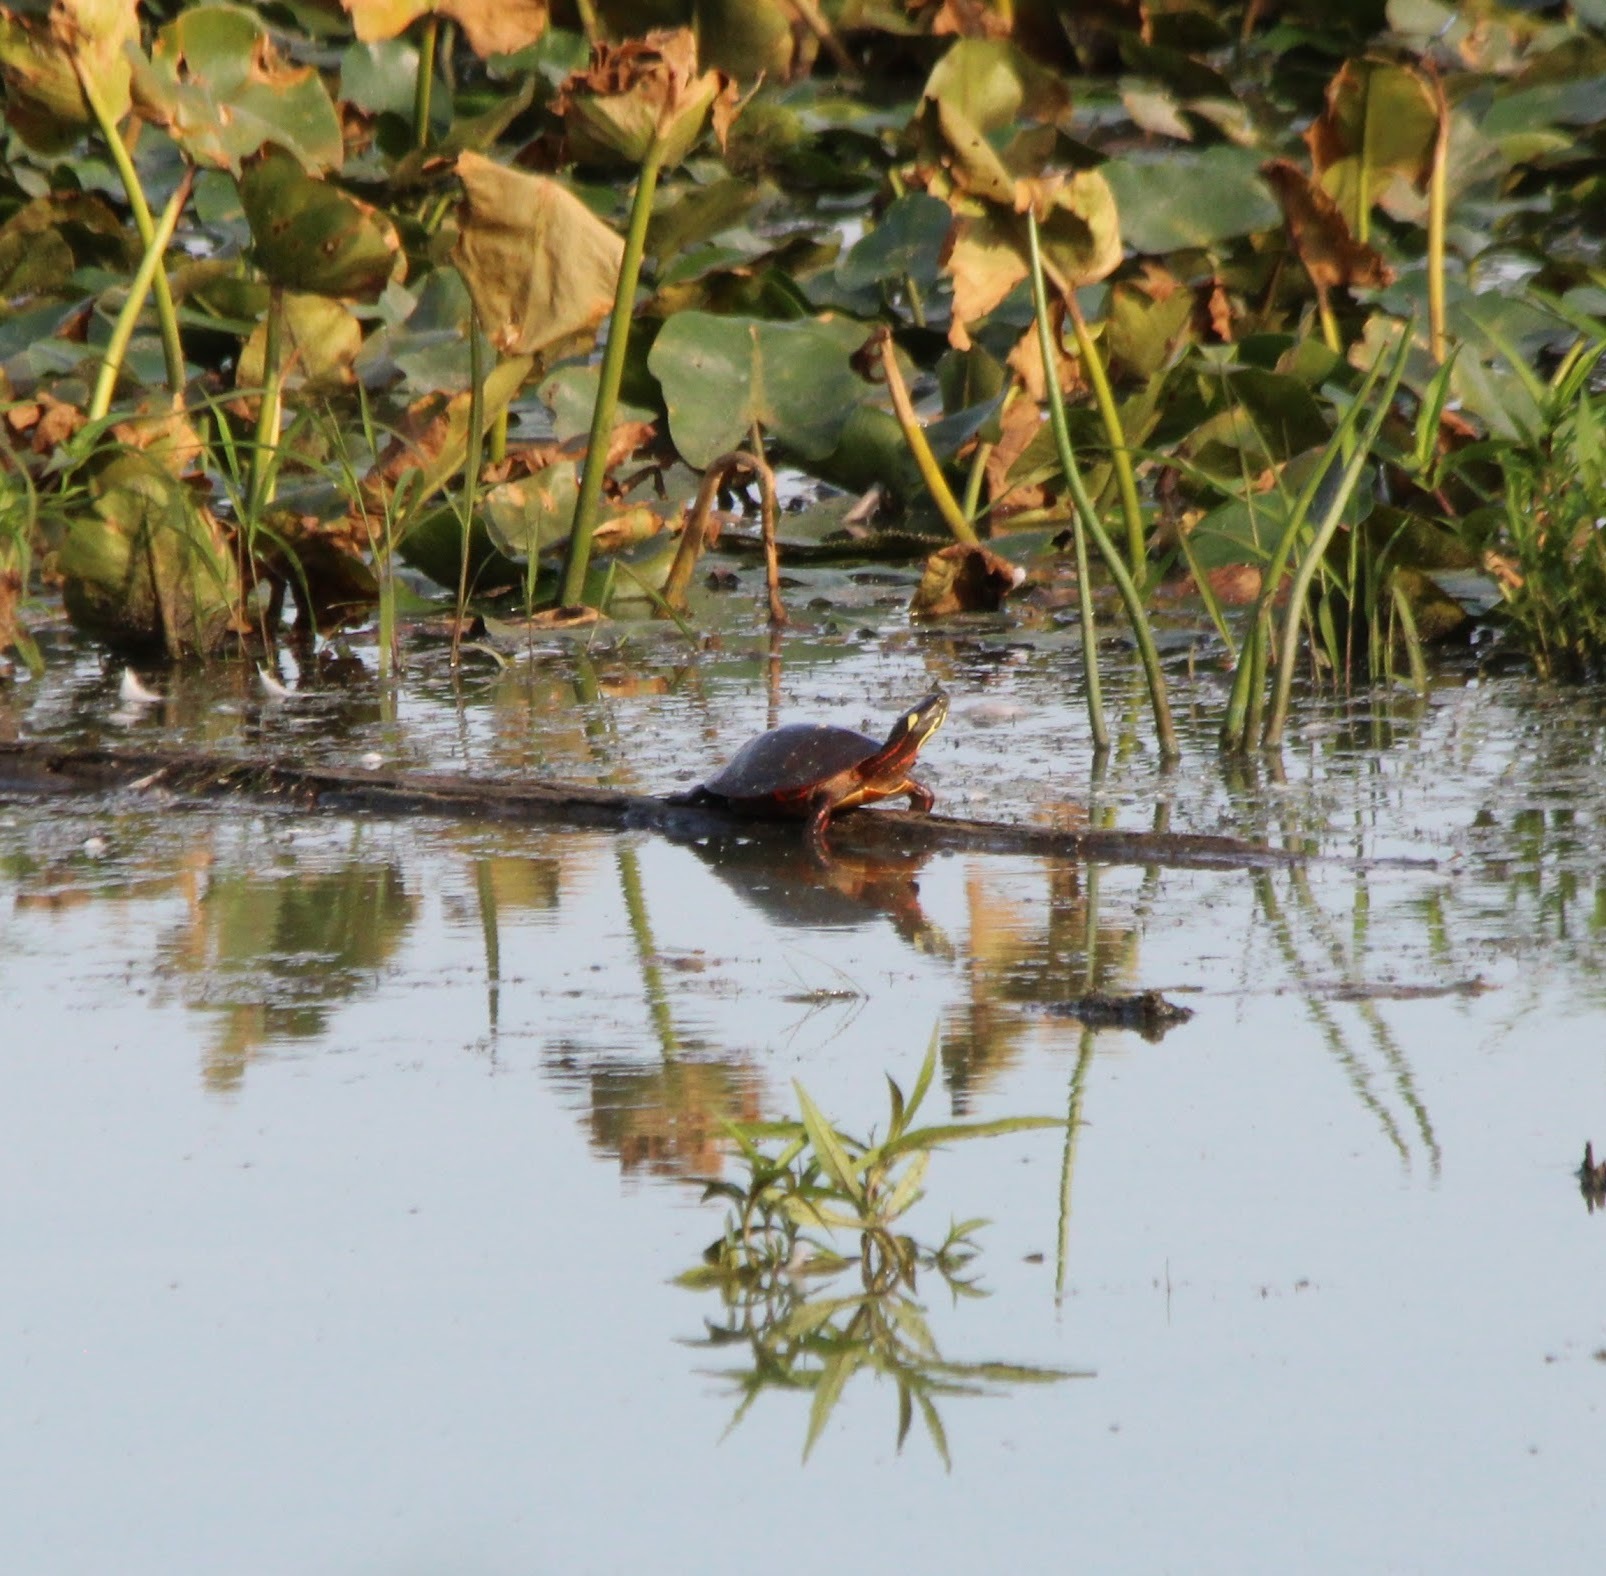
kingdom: Animalia
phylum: Chordata
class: Testudines
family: Emydidae
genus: Chrysemys
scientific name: Chrysemys picta
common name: Painted turtle
